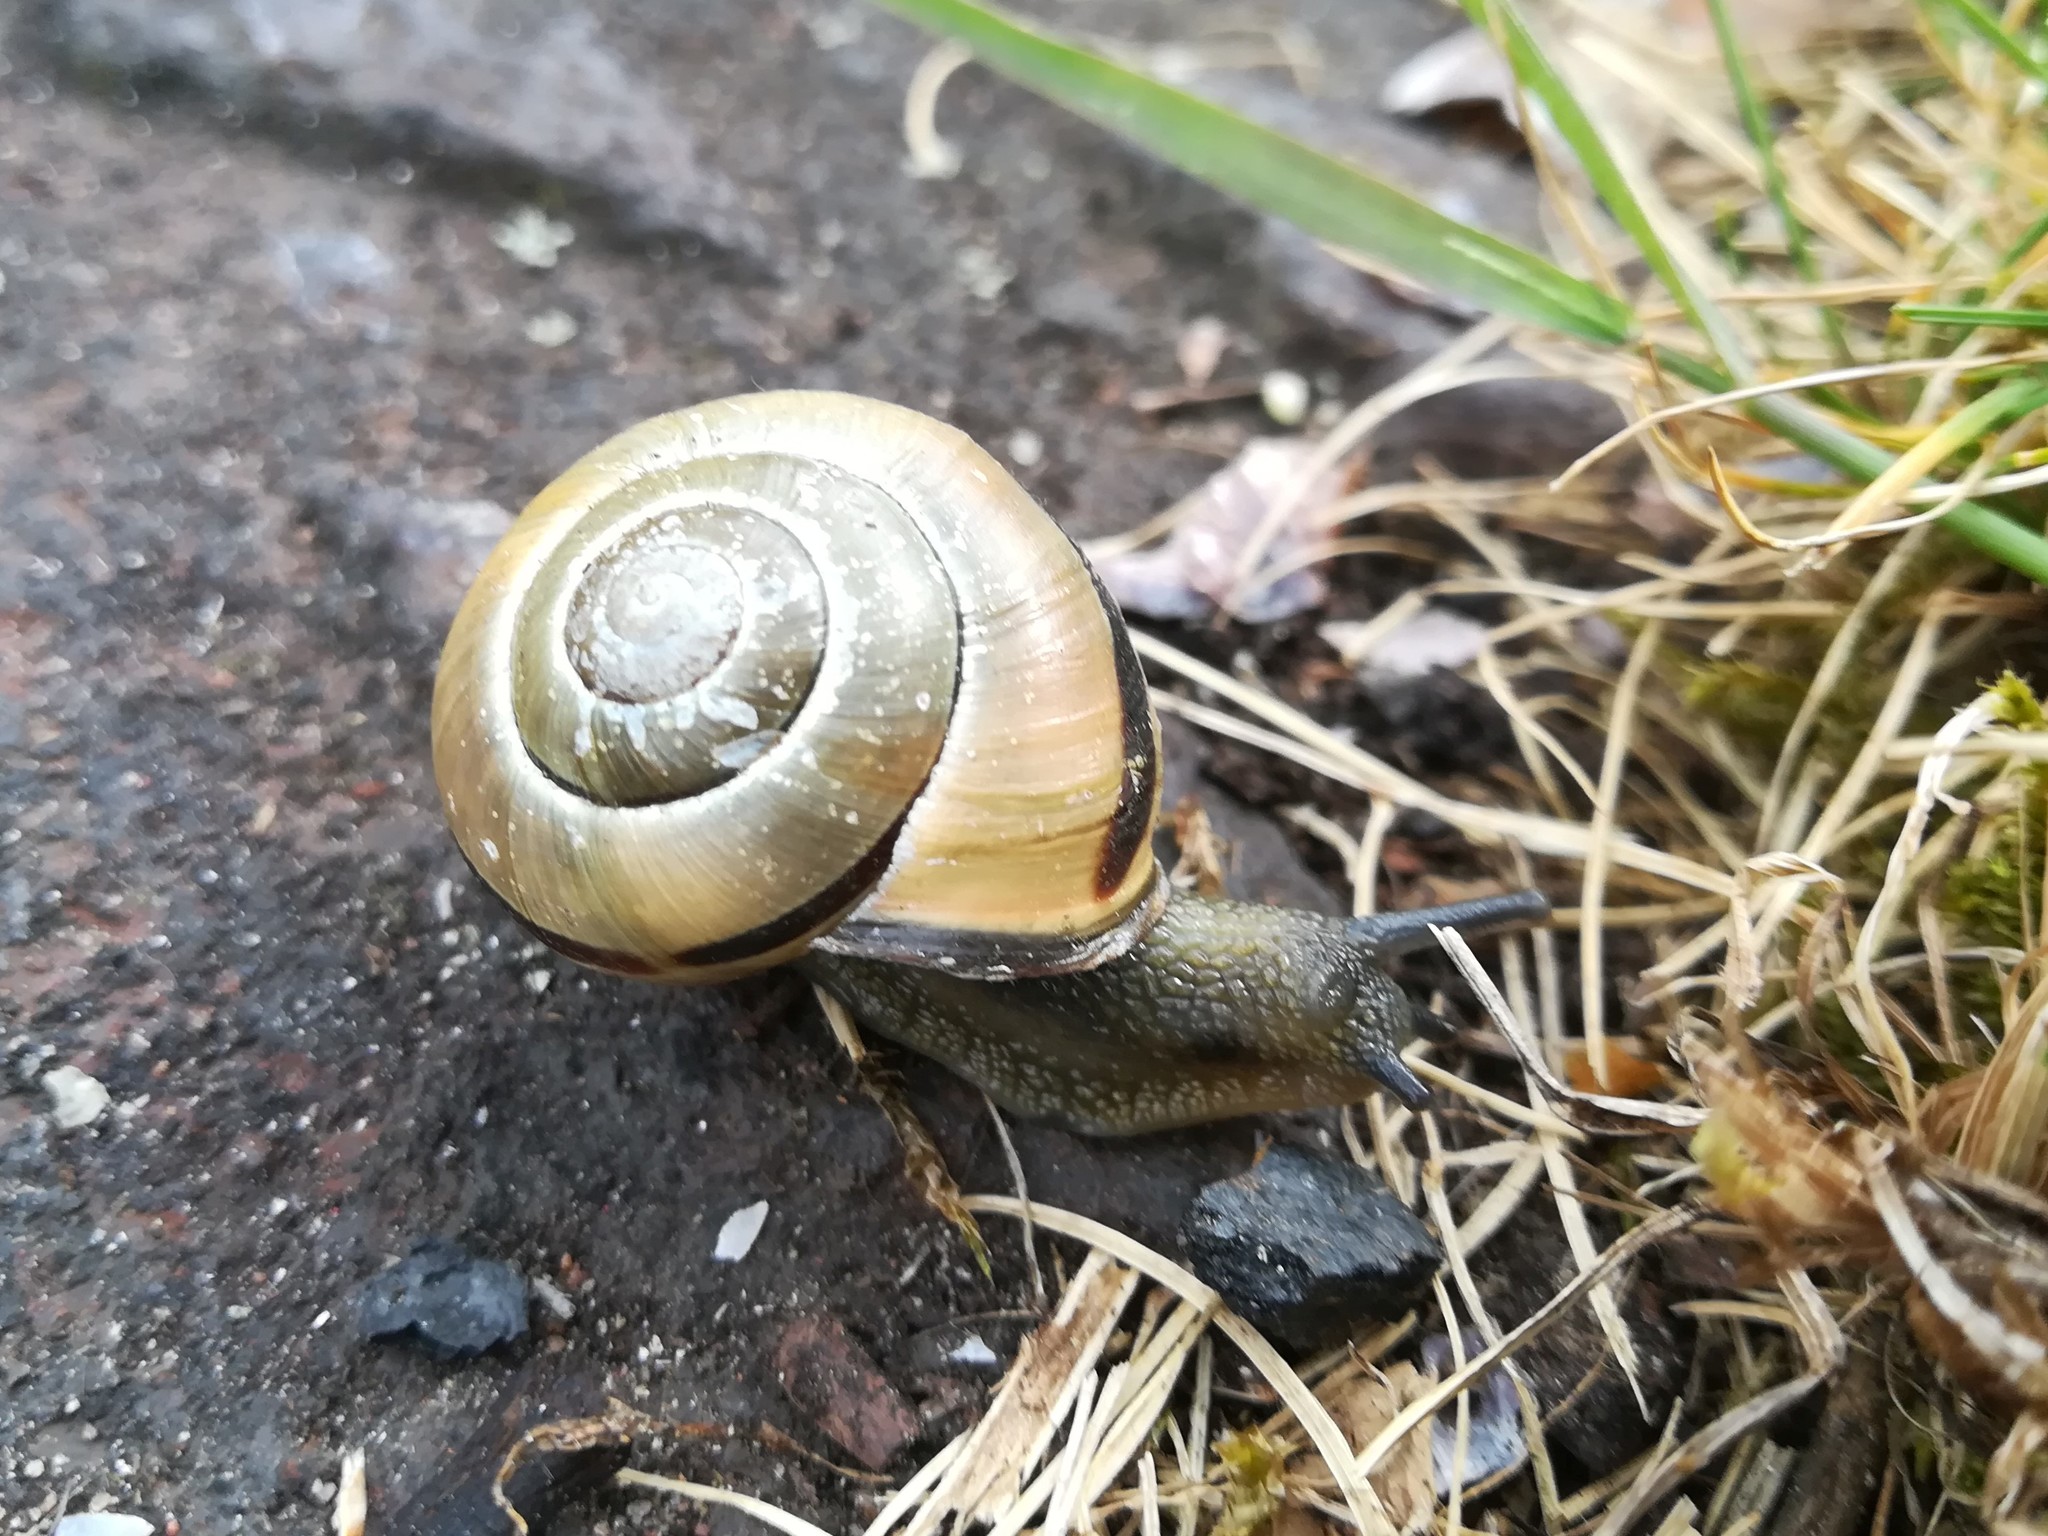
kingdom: Animalia
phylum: Mollusca
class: Gastropoda
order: Stylommatophora
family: Helicidae
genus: Cepaea
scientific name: Cepaea nemoralis
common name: Grovesnail
